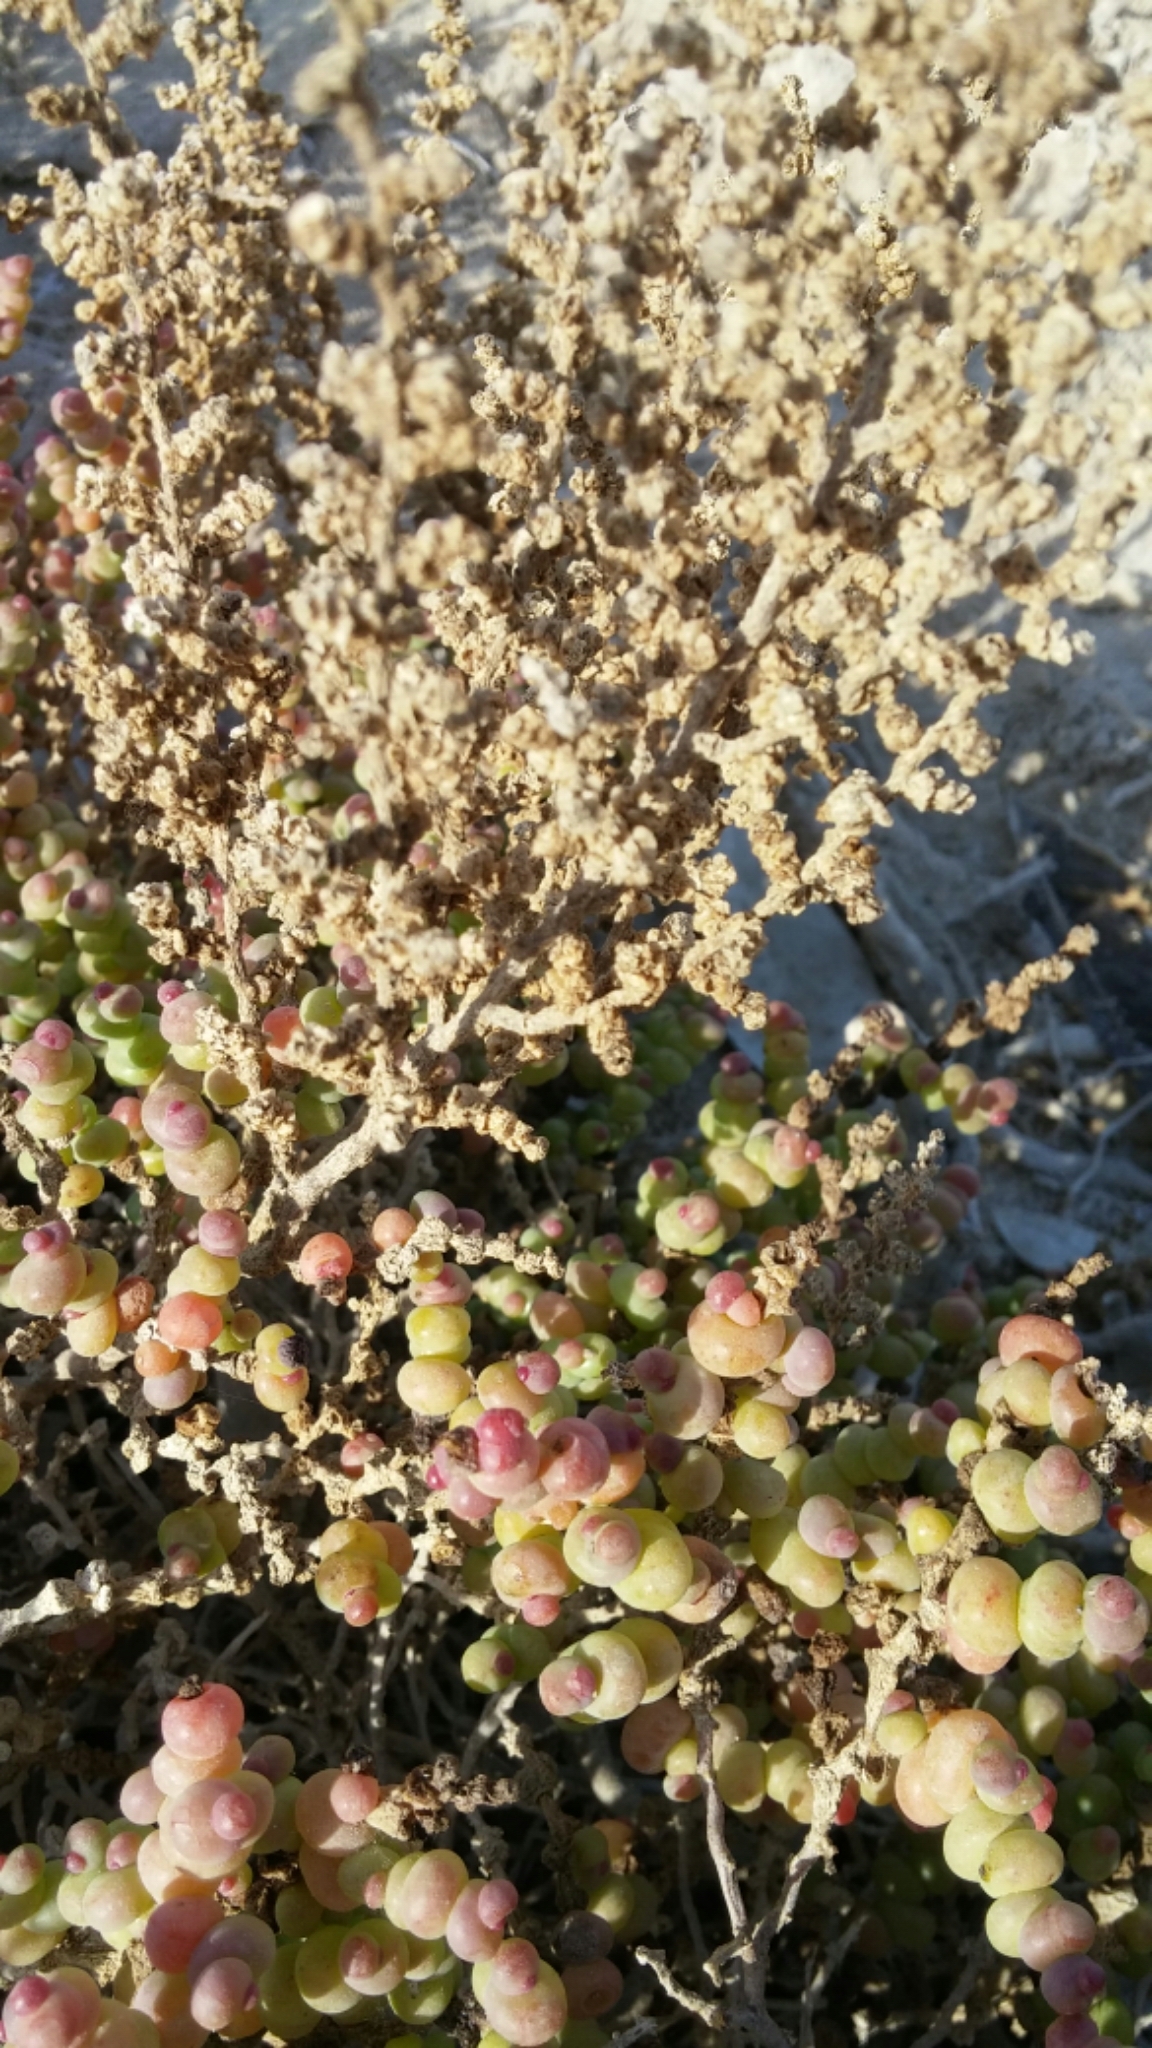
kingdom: Plantae
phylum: Tracheophyta
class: Magnoliopsida
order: Caryophyllales
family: Amaranthaceae
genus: Halocnemum
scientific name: Halocnemum strobilaceum
